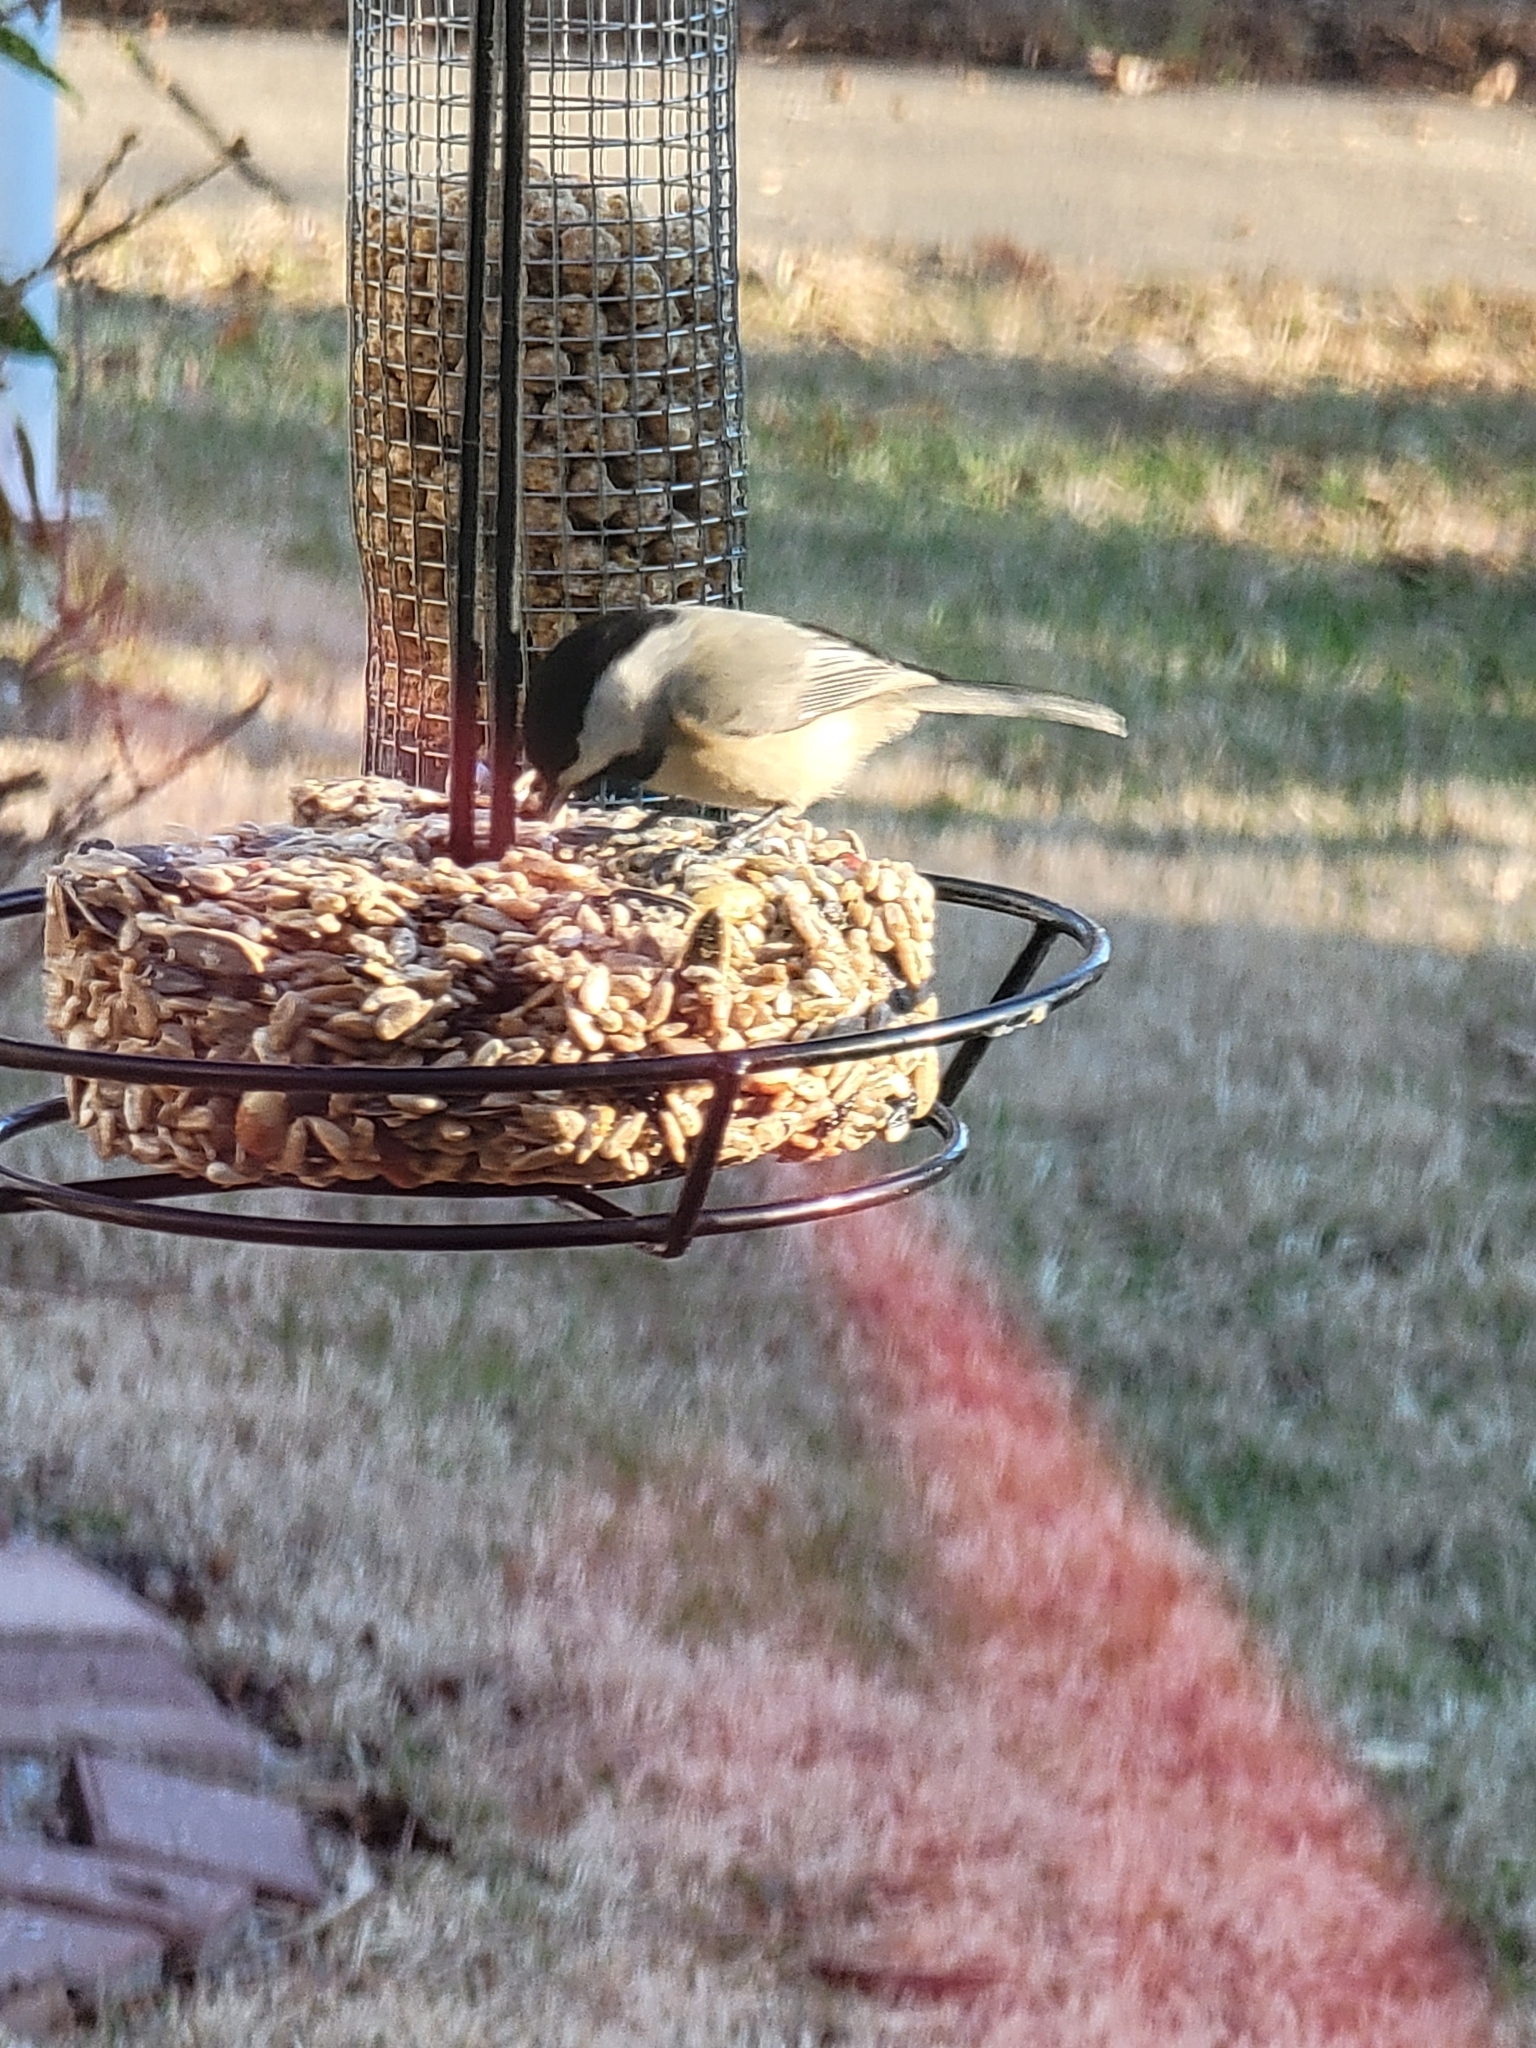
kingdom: Animalia
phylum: Chordata
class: Aves
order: Passeriformes
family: Paridae
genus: Poecile
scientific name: Poecile carolinensis
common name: Carolina chickadee
